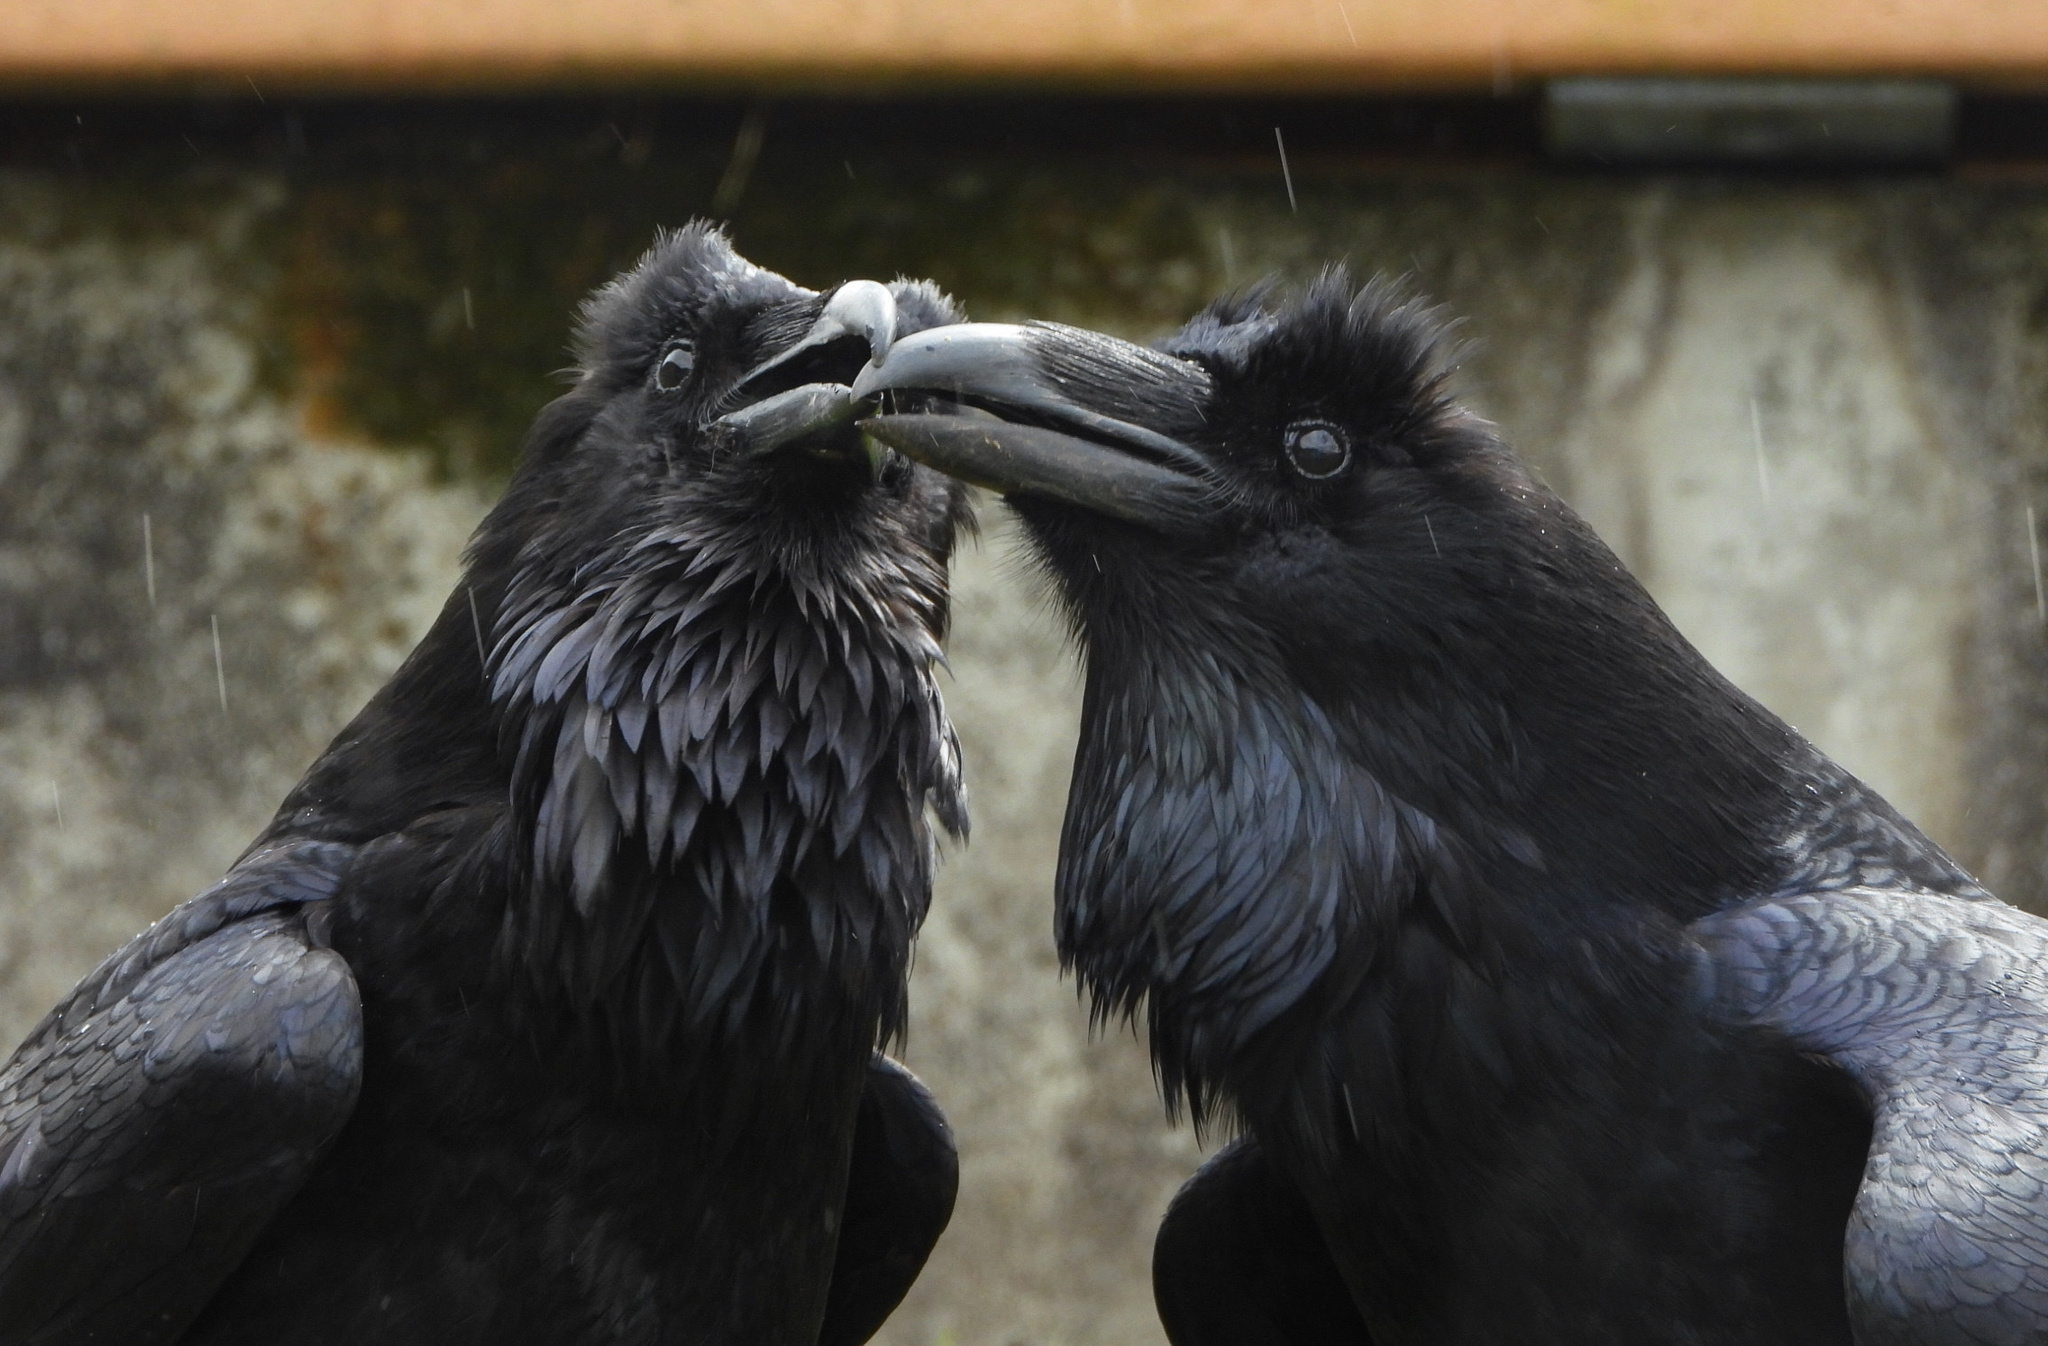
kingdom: Animalia
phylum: Chordata
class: Aves
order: Passeriformes
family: Corvidae
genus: Corvus
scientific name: Corvus corax
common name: Common raven
